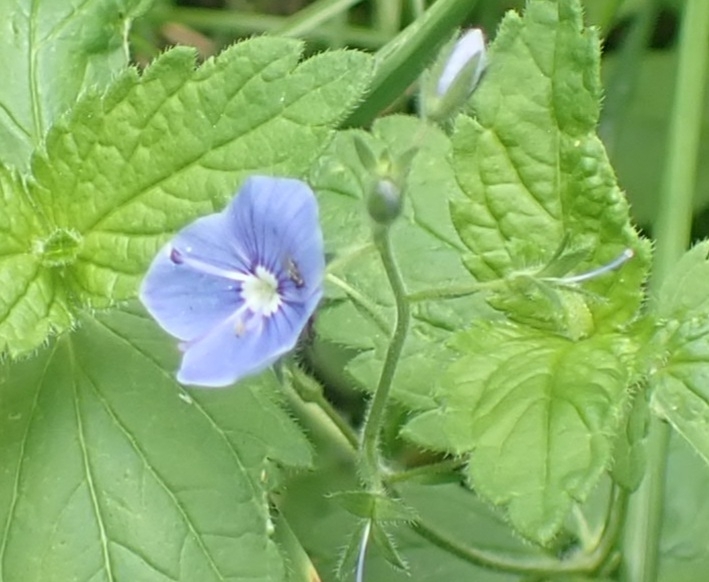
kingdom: Plantae
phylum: Tracheophyta
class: Magnoliopsida
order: Lamiales
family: Plantaginaceae
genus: Veronica
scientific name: Veronica chamaedrys
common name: Germander speedwell
